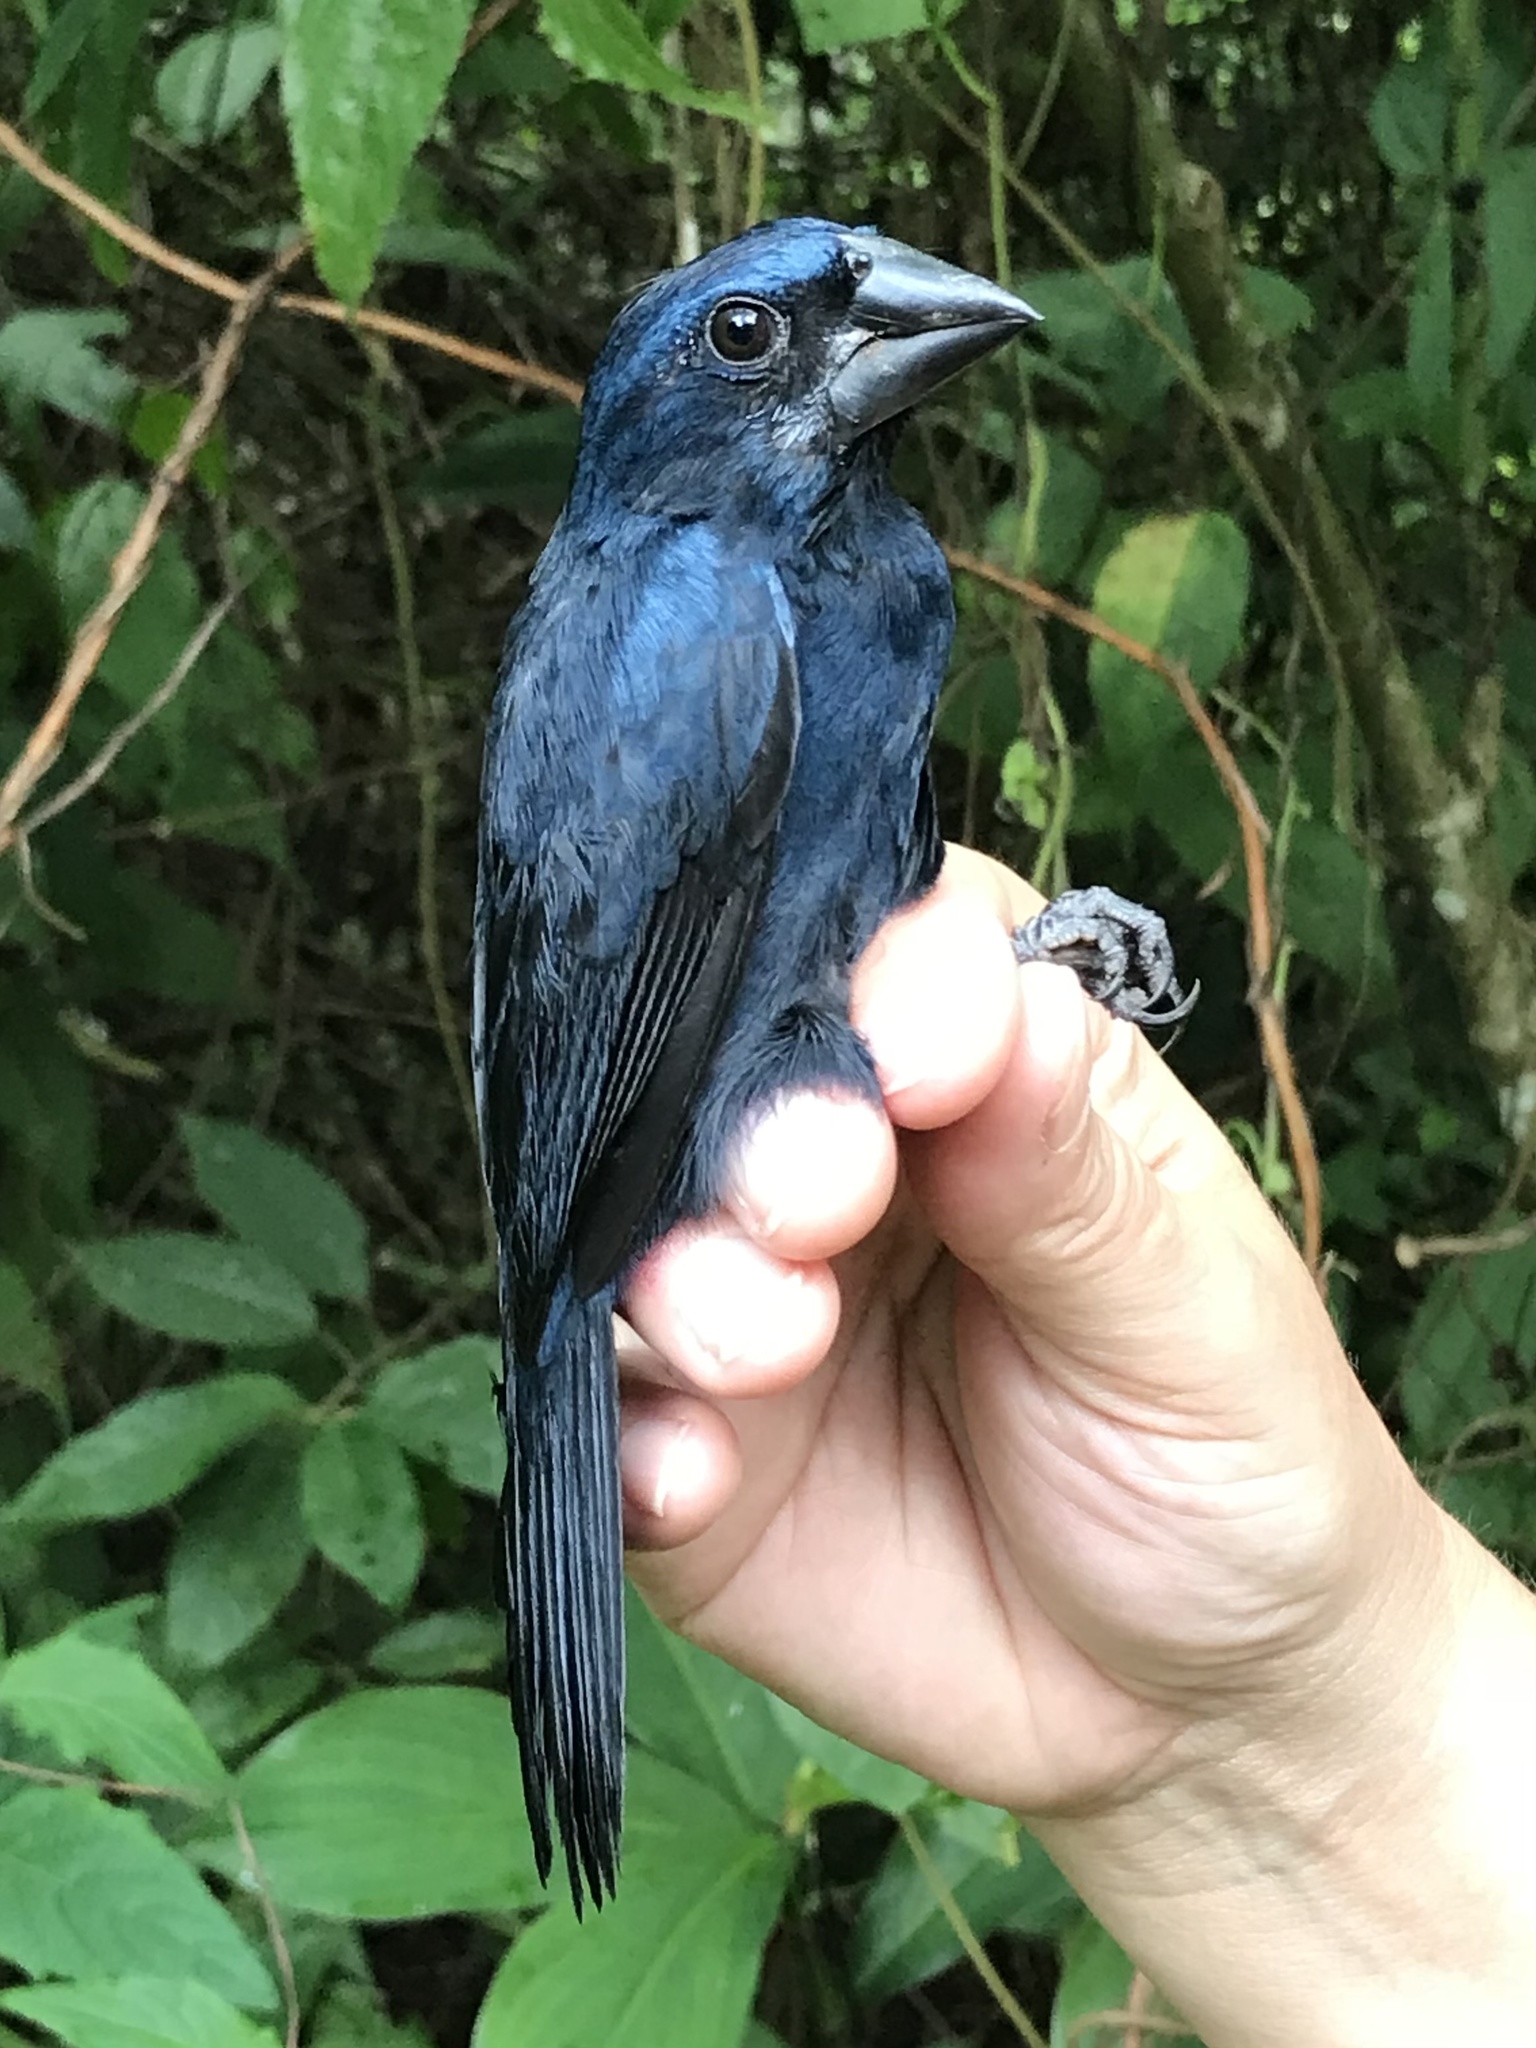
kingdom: Animalia
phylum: Chordata
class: Aves
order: Passeriformes
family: Cardinalidae
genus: Cyanocompsa
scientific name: Cyanocompsa cyanoides
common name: Blue-black grosbeak
